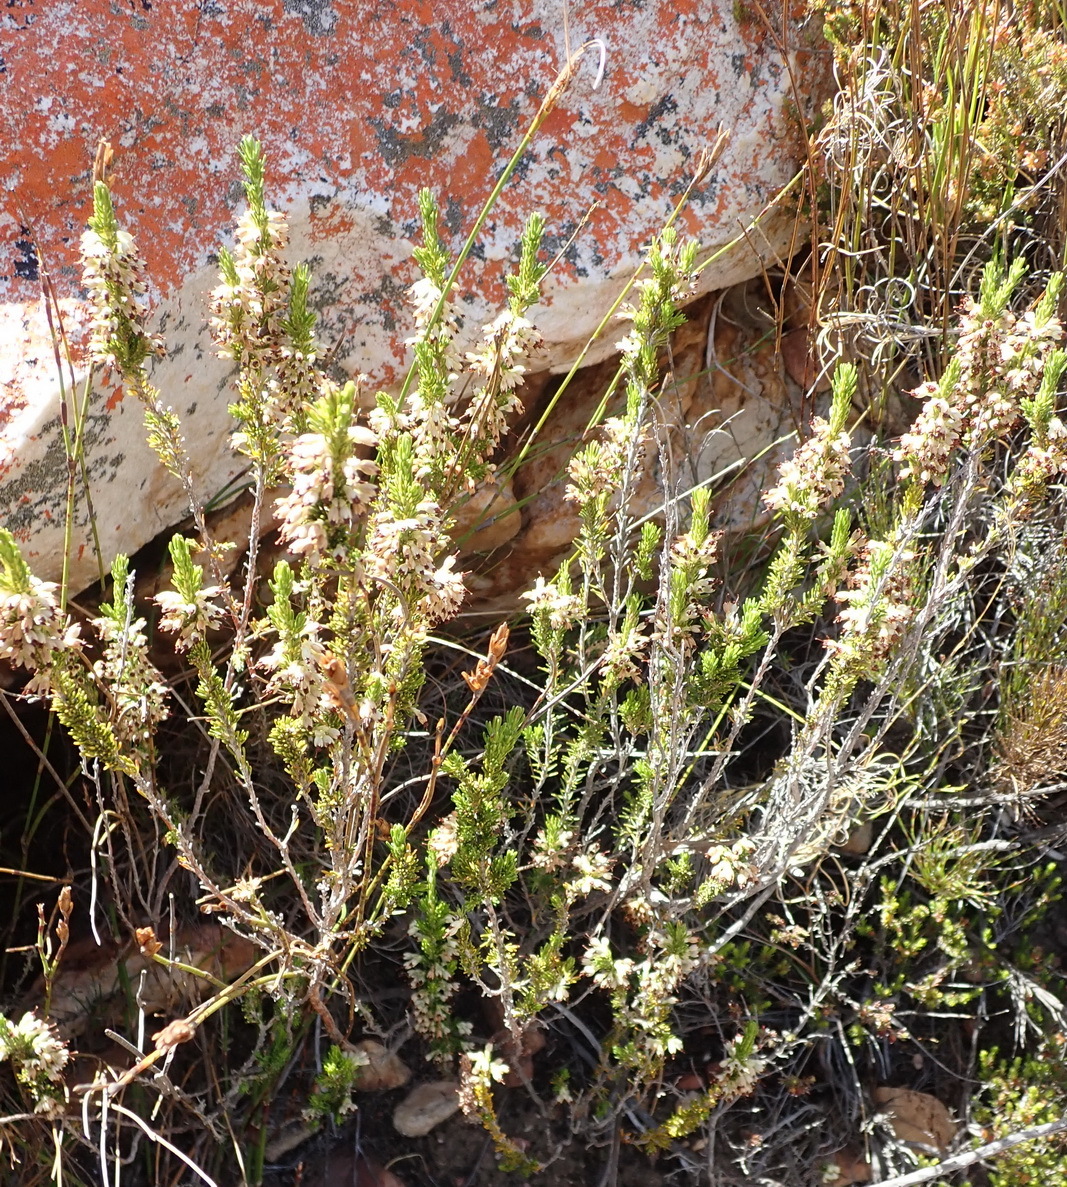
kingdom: Plantae
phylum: Tracheophyta
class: Magnoliopsida
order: Ericales
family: Ericaceae
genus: Erica
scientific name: Erica imbricata
